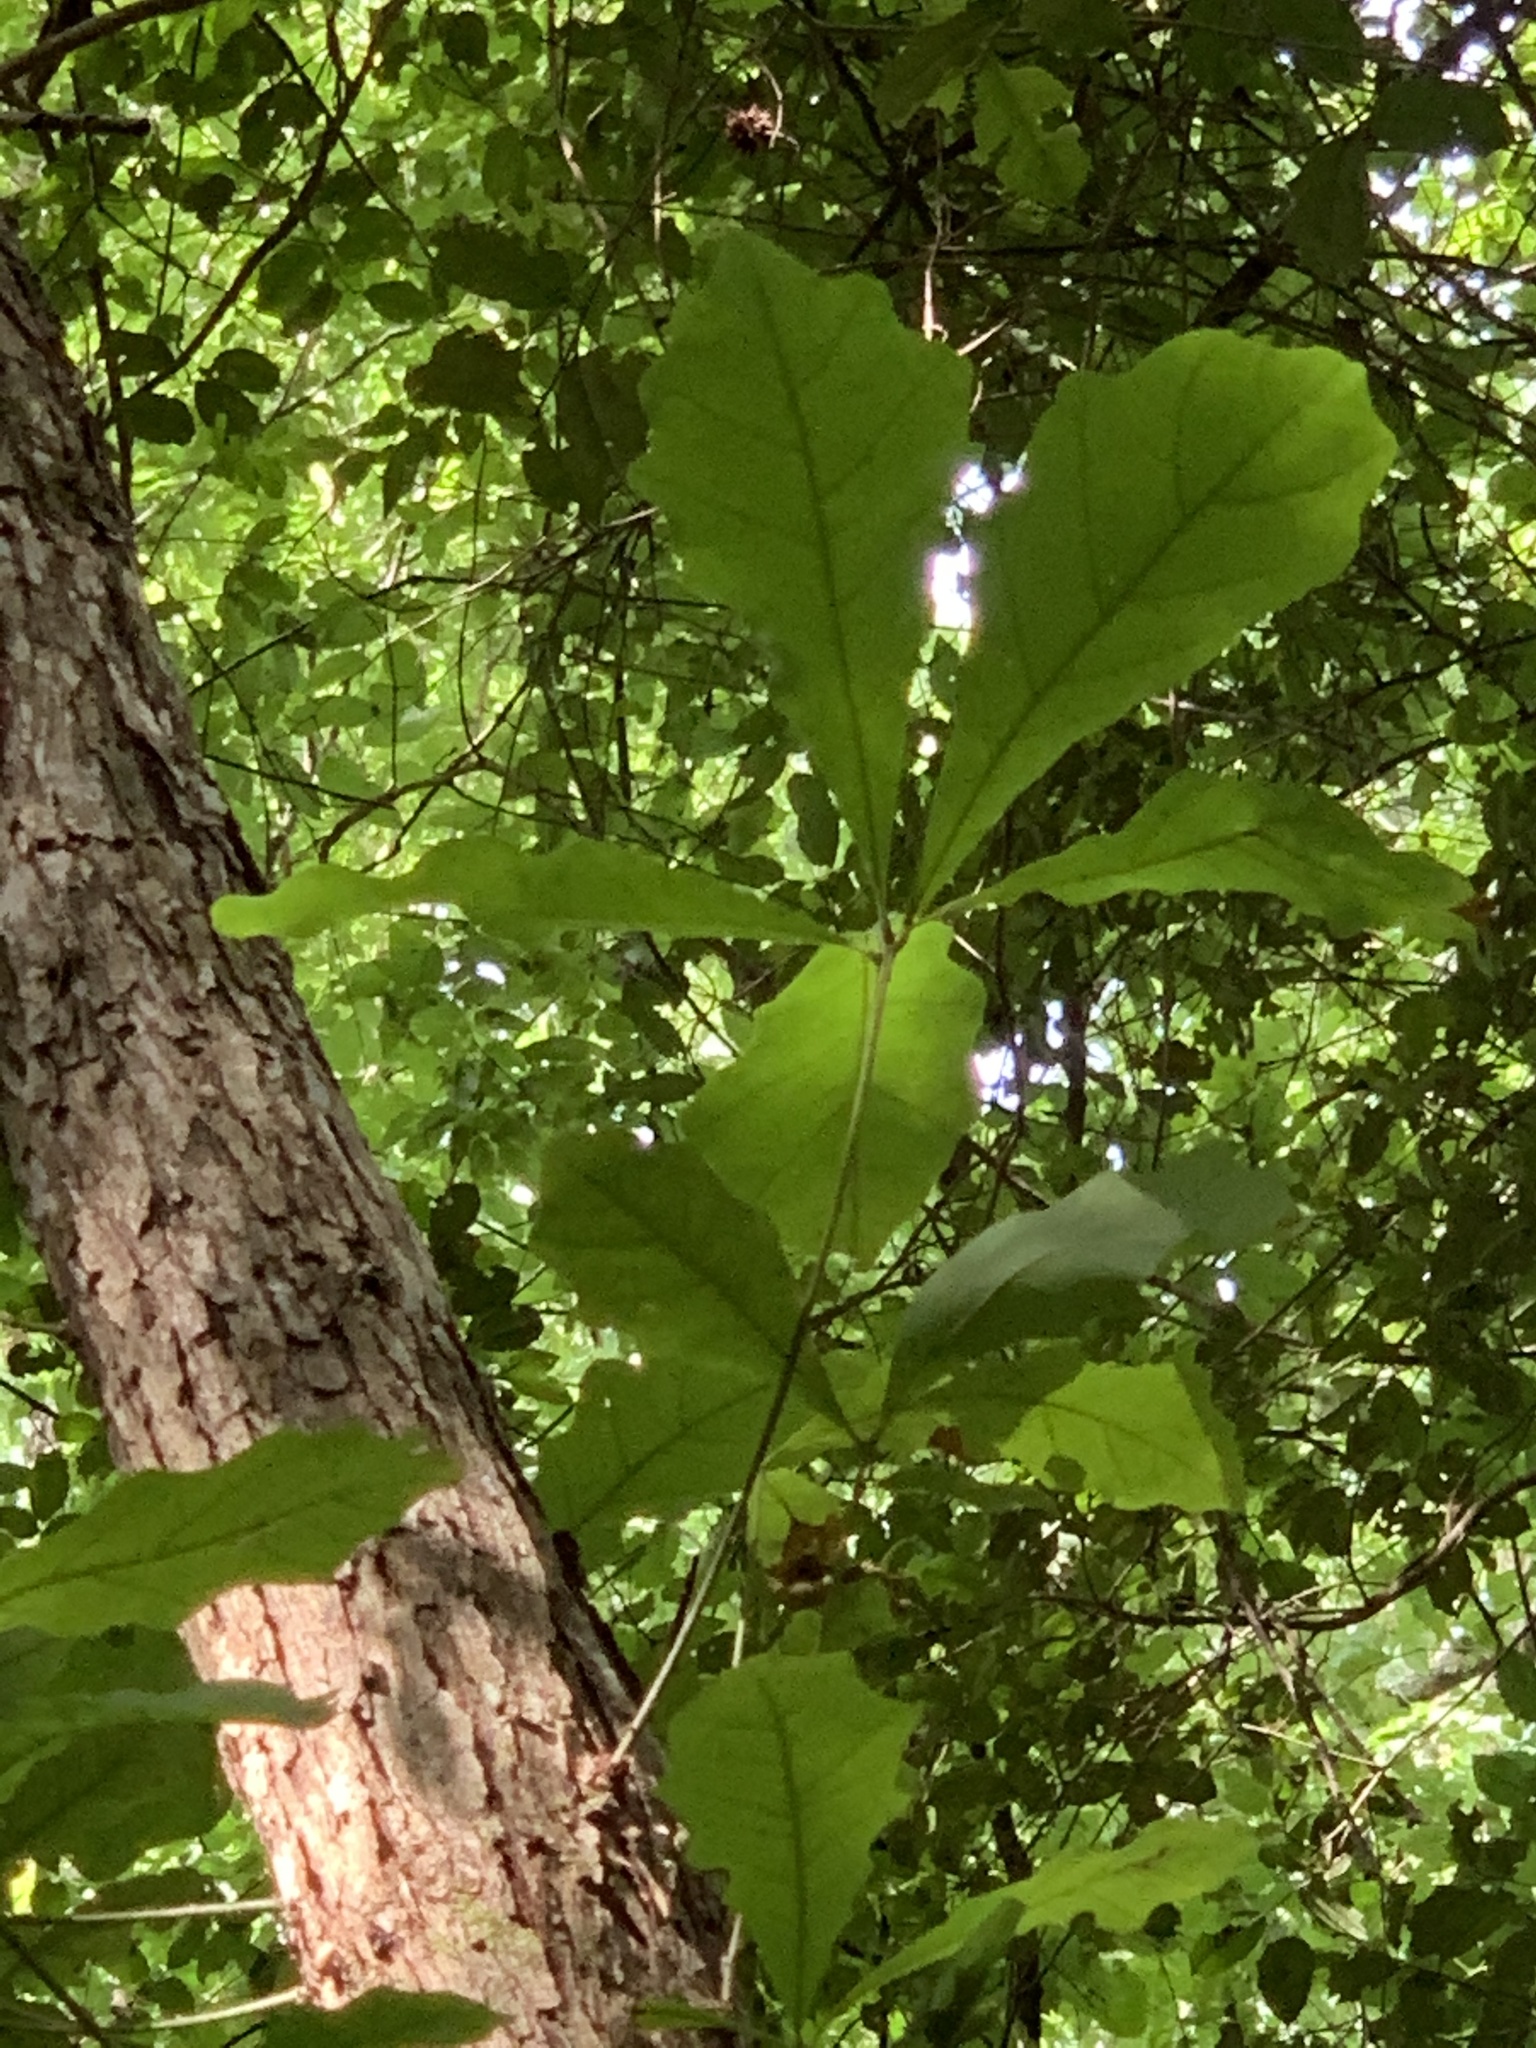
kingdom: Plantae
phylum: Tracheophyta
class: Magnoliopsida
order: Fagales
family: Fagaceae
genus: Quercus
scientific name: Quercus michauxii
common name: Swamp chestnut oak
